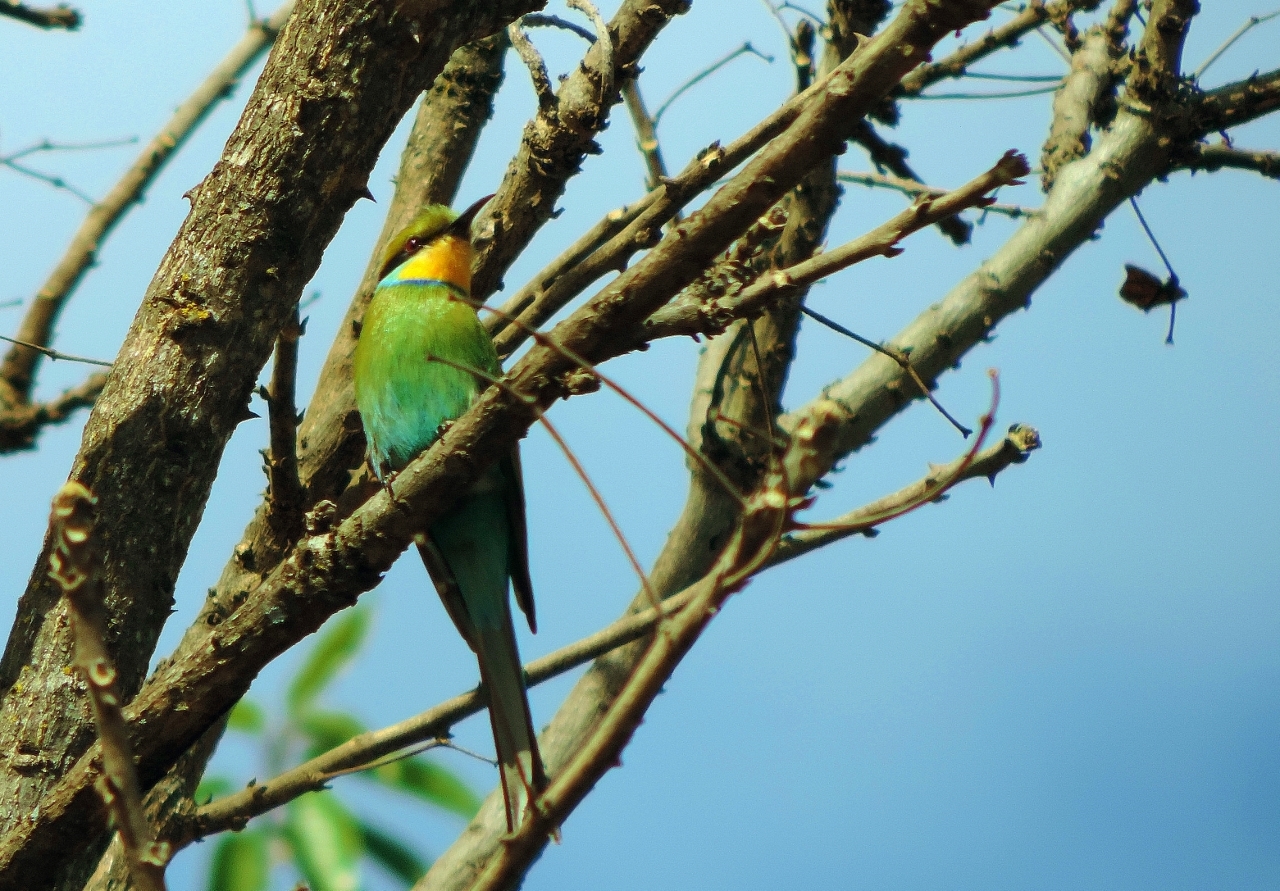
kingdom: Animalia
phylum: Chordata
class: Aves
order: Coraciiformes
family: Meropidae
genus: Merops
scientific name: Merops hirundineus
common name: Swallow-tailed bee-eater
